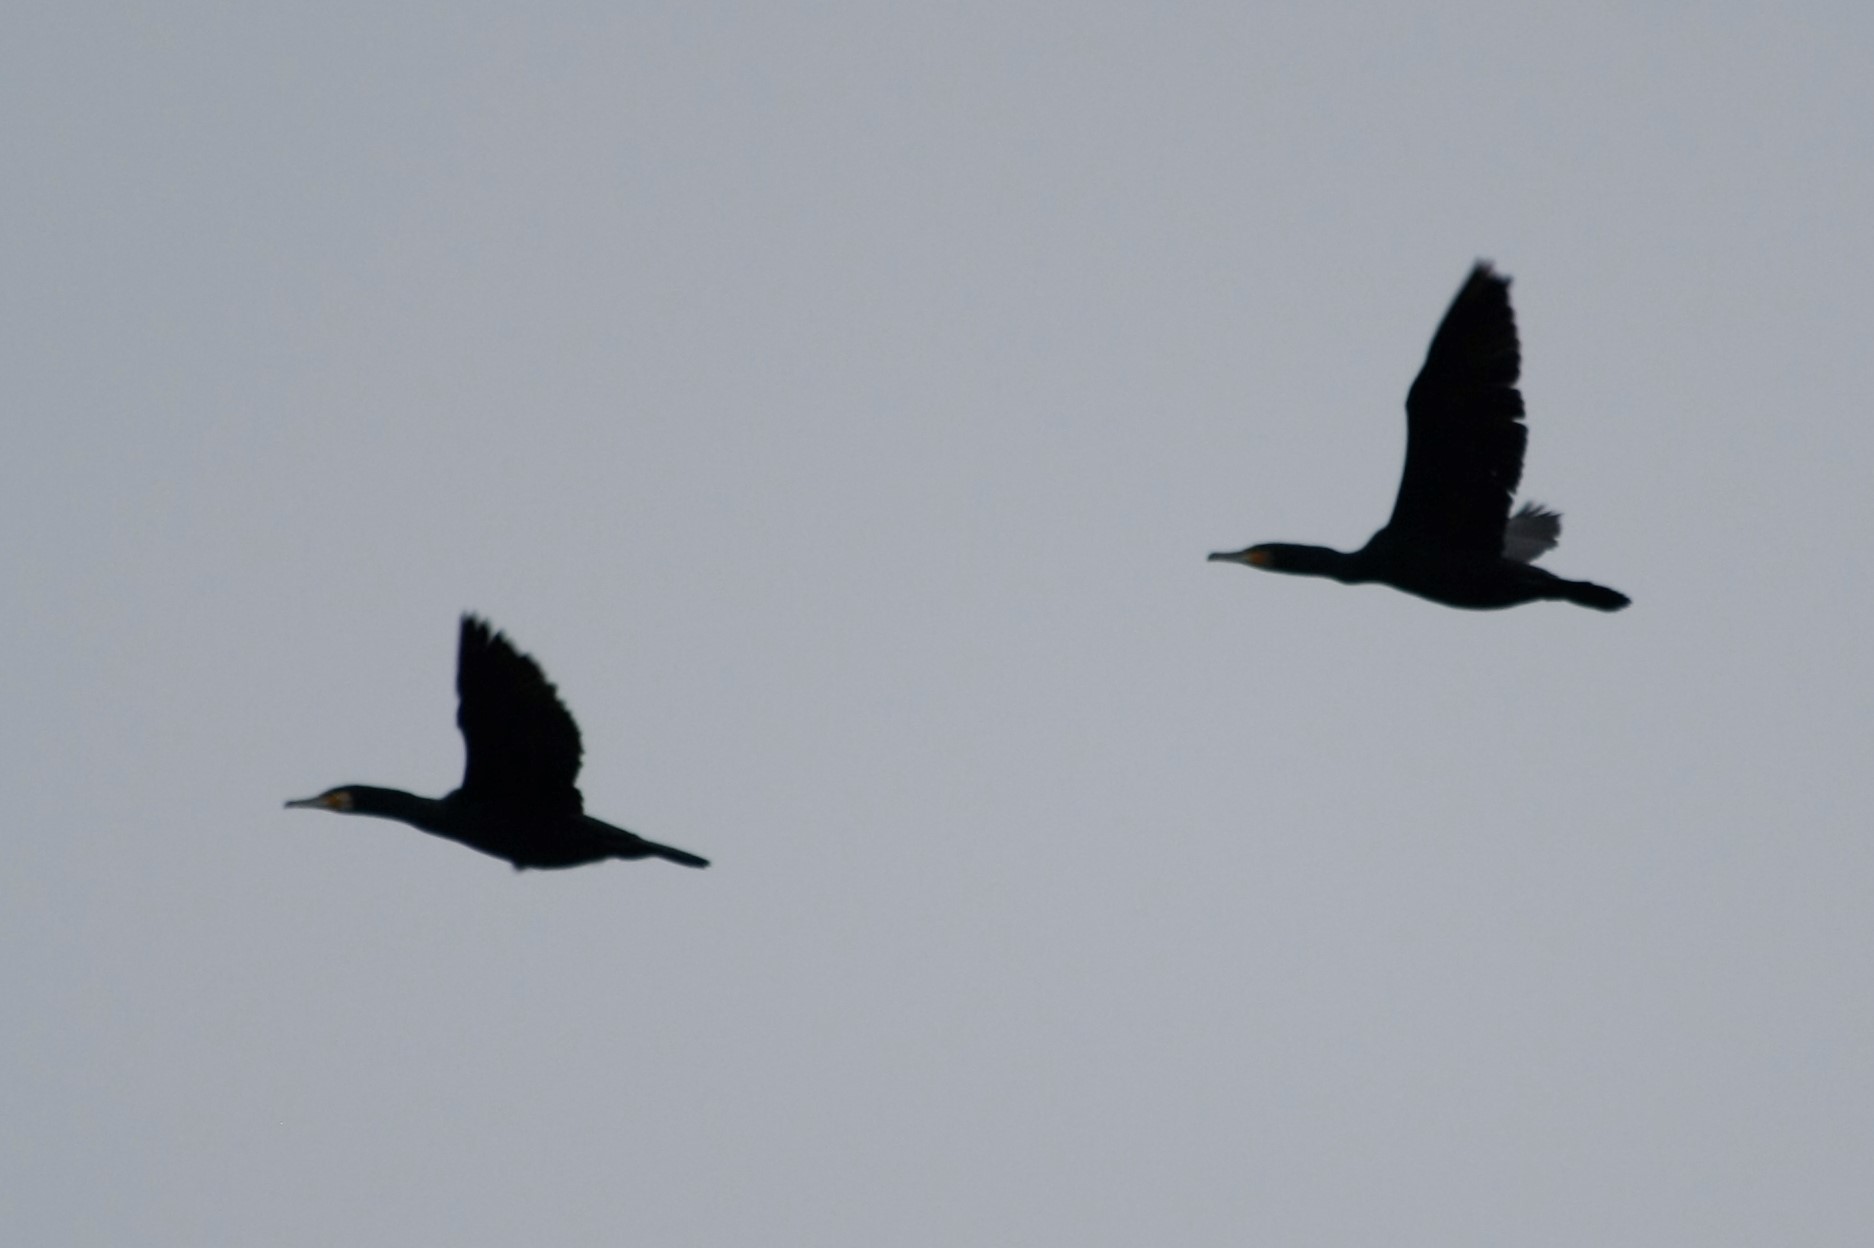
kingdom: Animalia
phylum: Chordata
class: Aves
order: Suliformes
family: Phalacrocoracidae
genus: Phalacrocorax
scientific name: Phalacrocorax carbo
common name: Great cormorant
